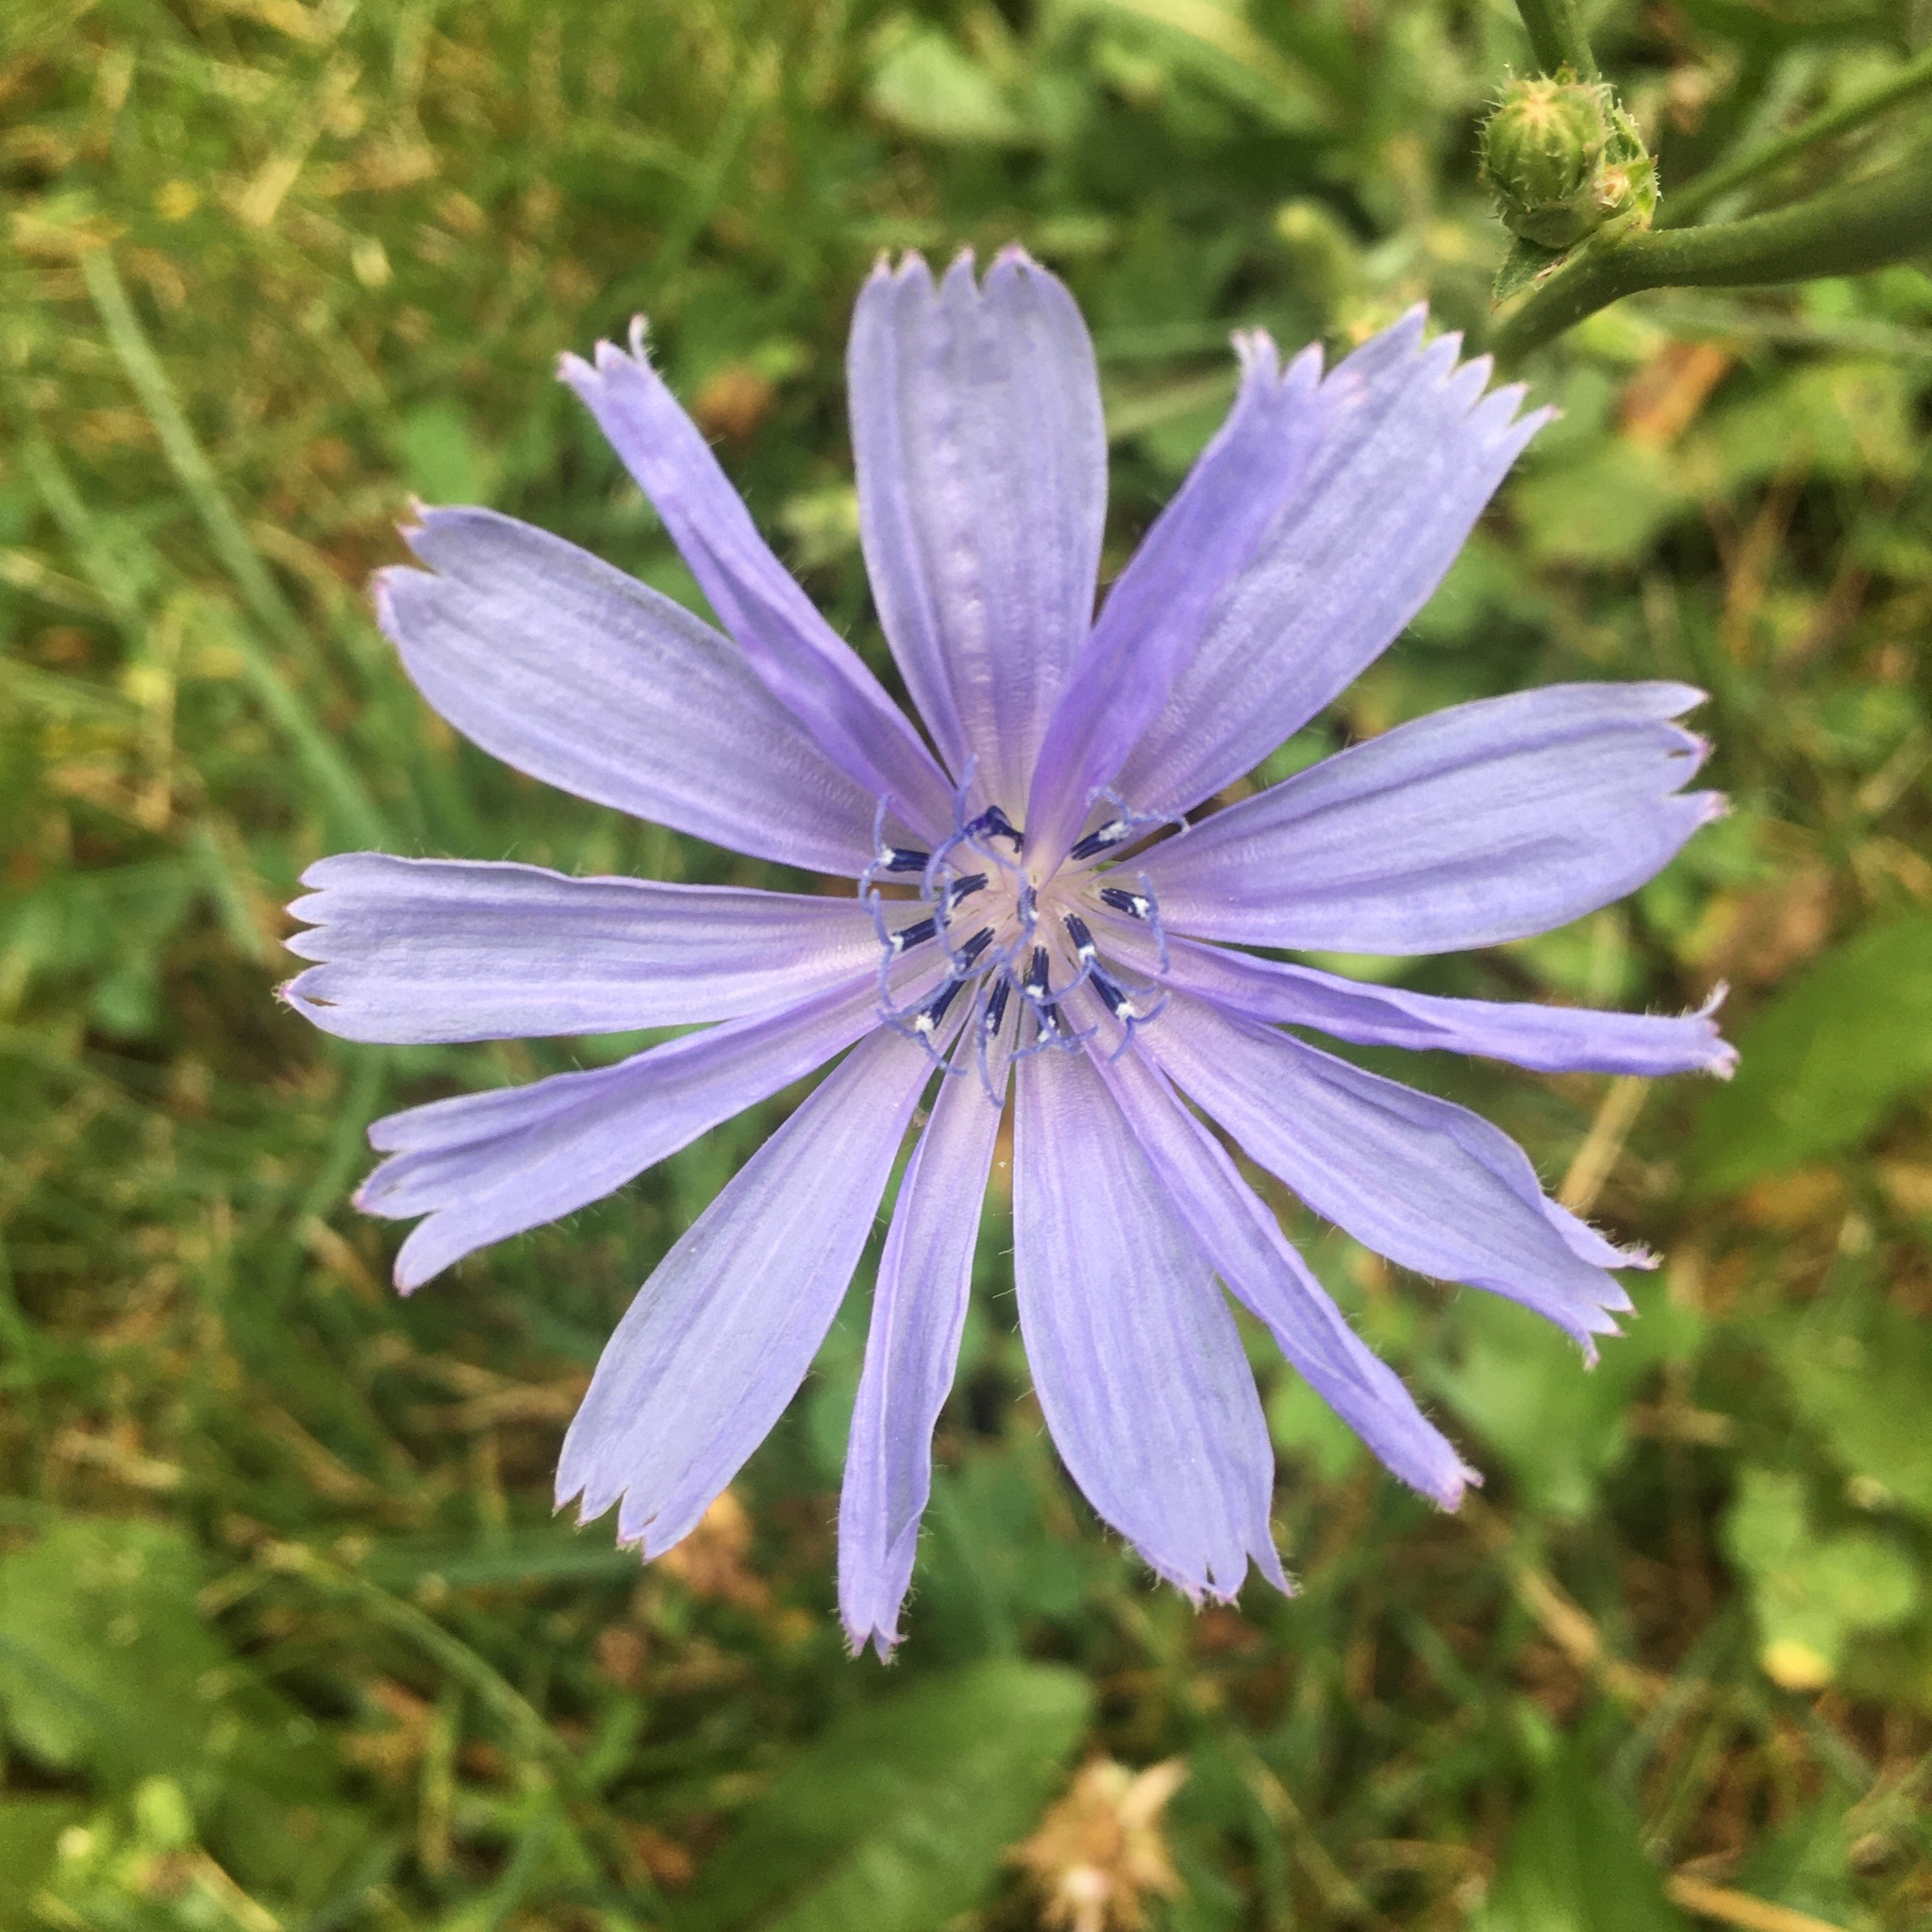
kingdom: Plantae
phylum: Tracheophyta
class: Magnoliopsida
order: Asterales
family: Asteraceae
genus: Cichorium
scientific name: Cichorium intybus
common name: Chicory
